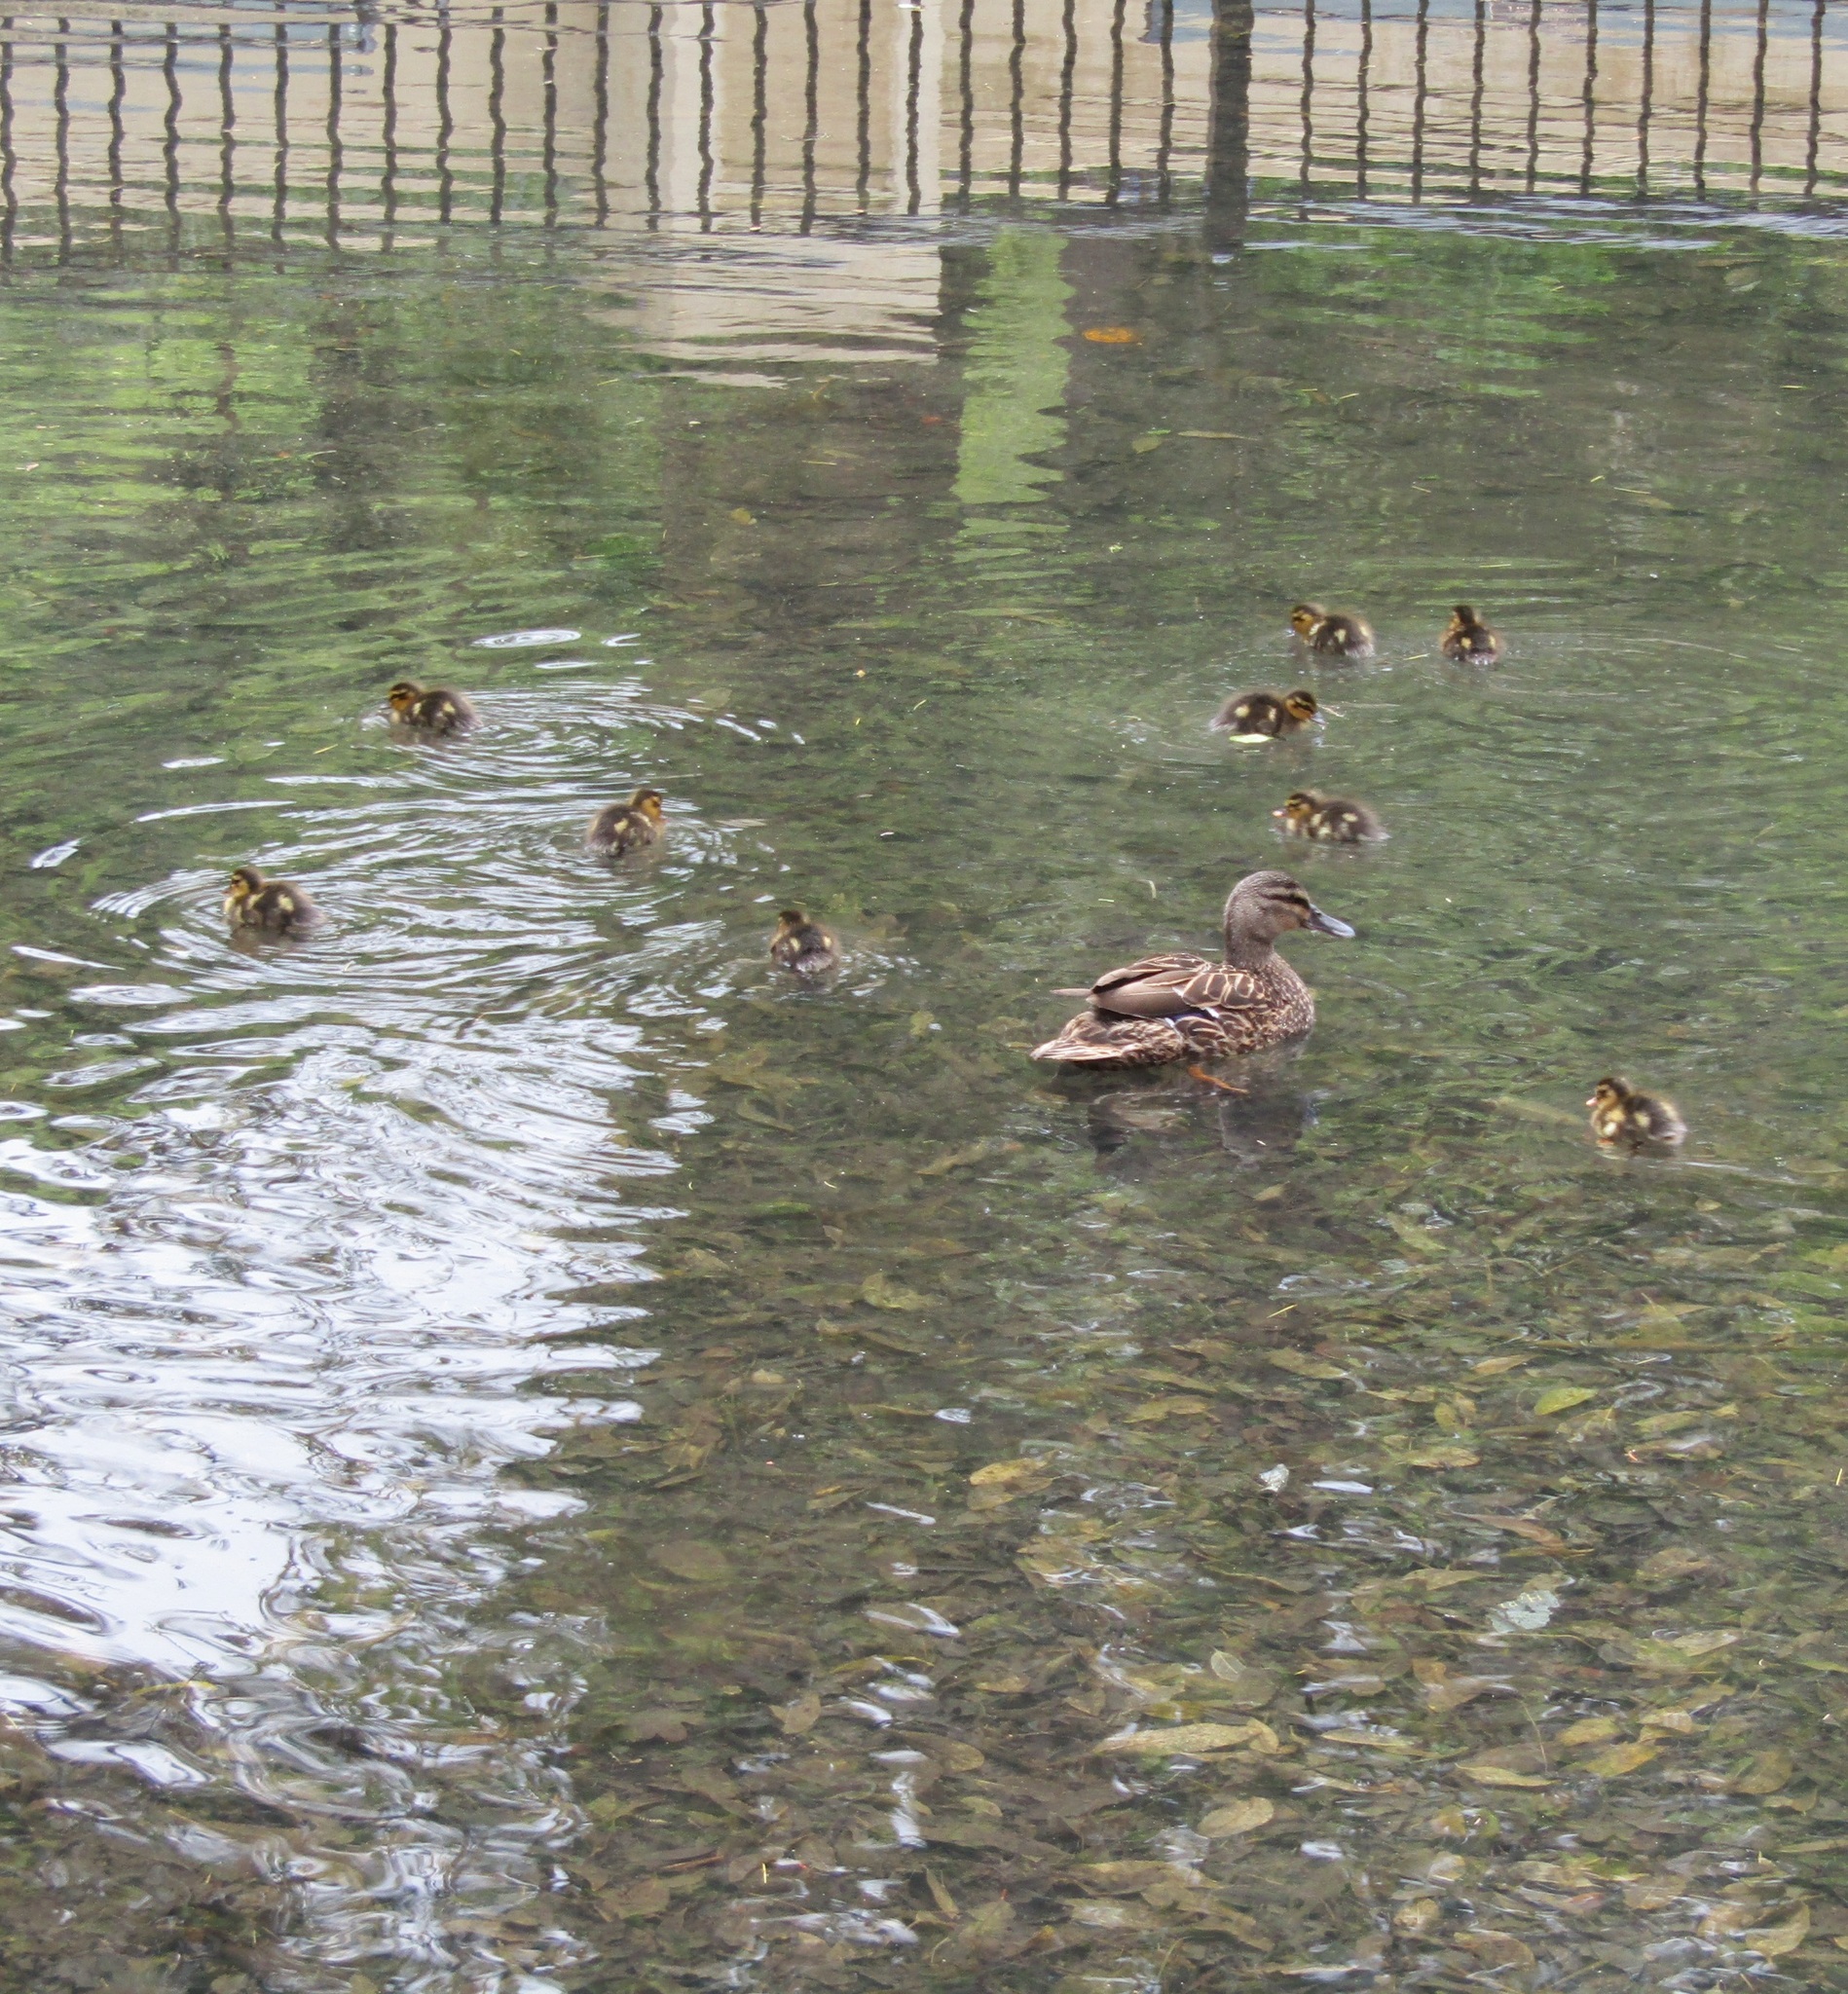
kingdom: Animalia
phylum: Chordata
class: Aves
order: Anseriformes
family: Anatidae
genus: Anas
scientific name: Anas
